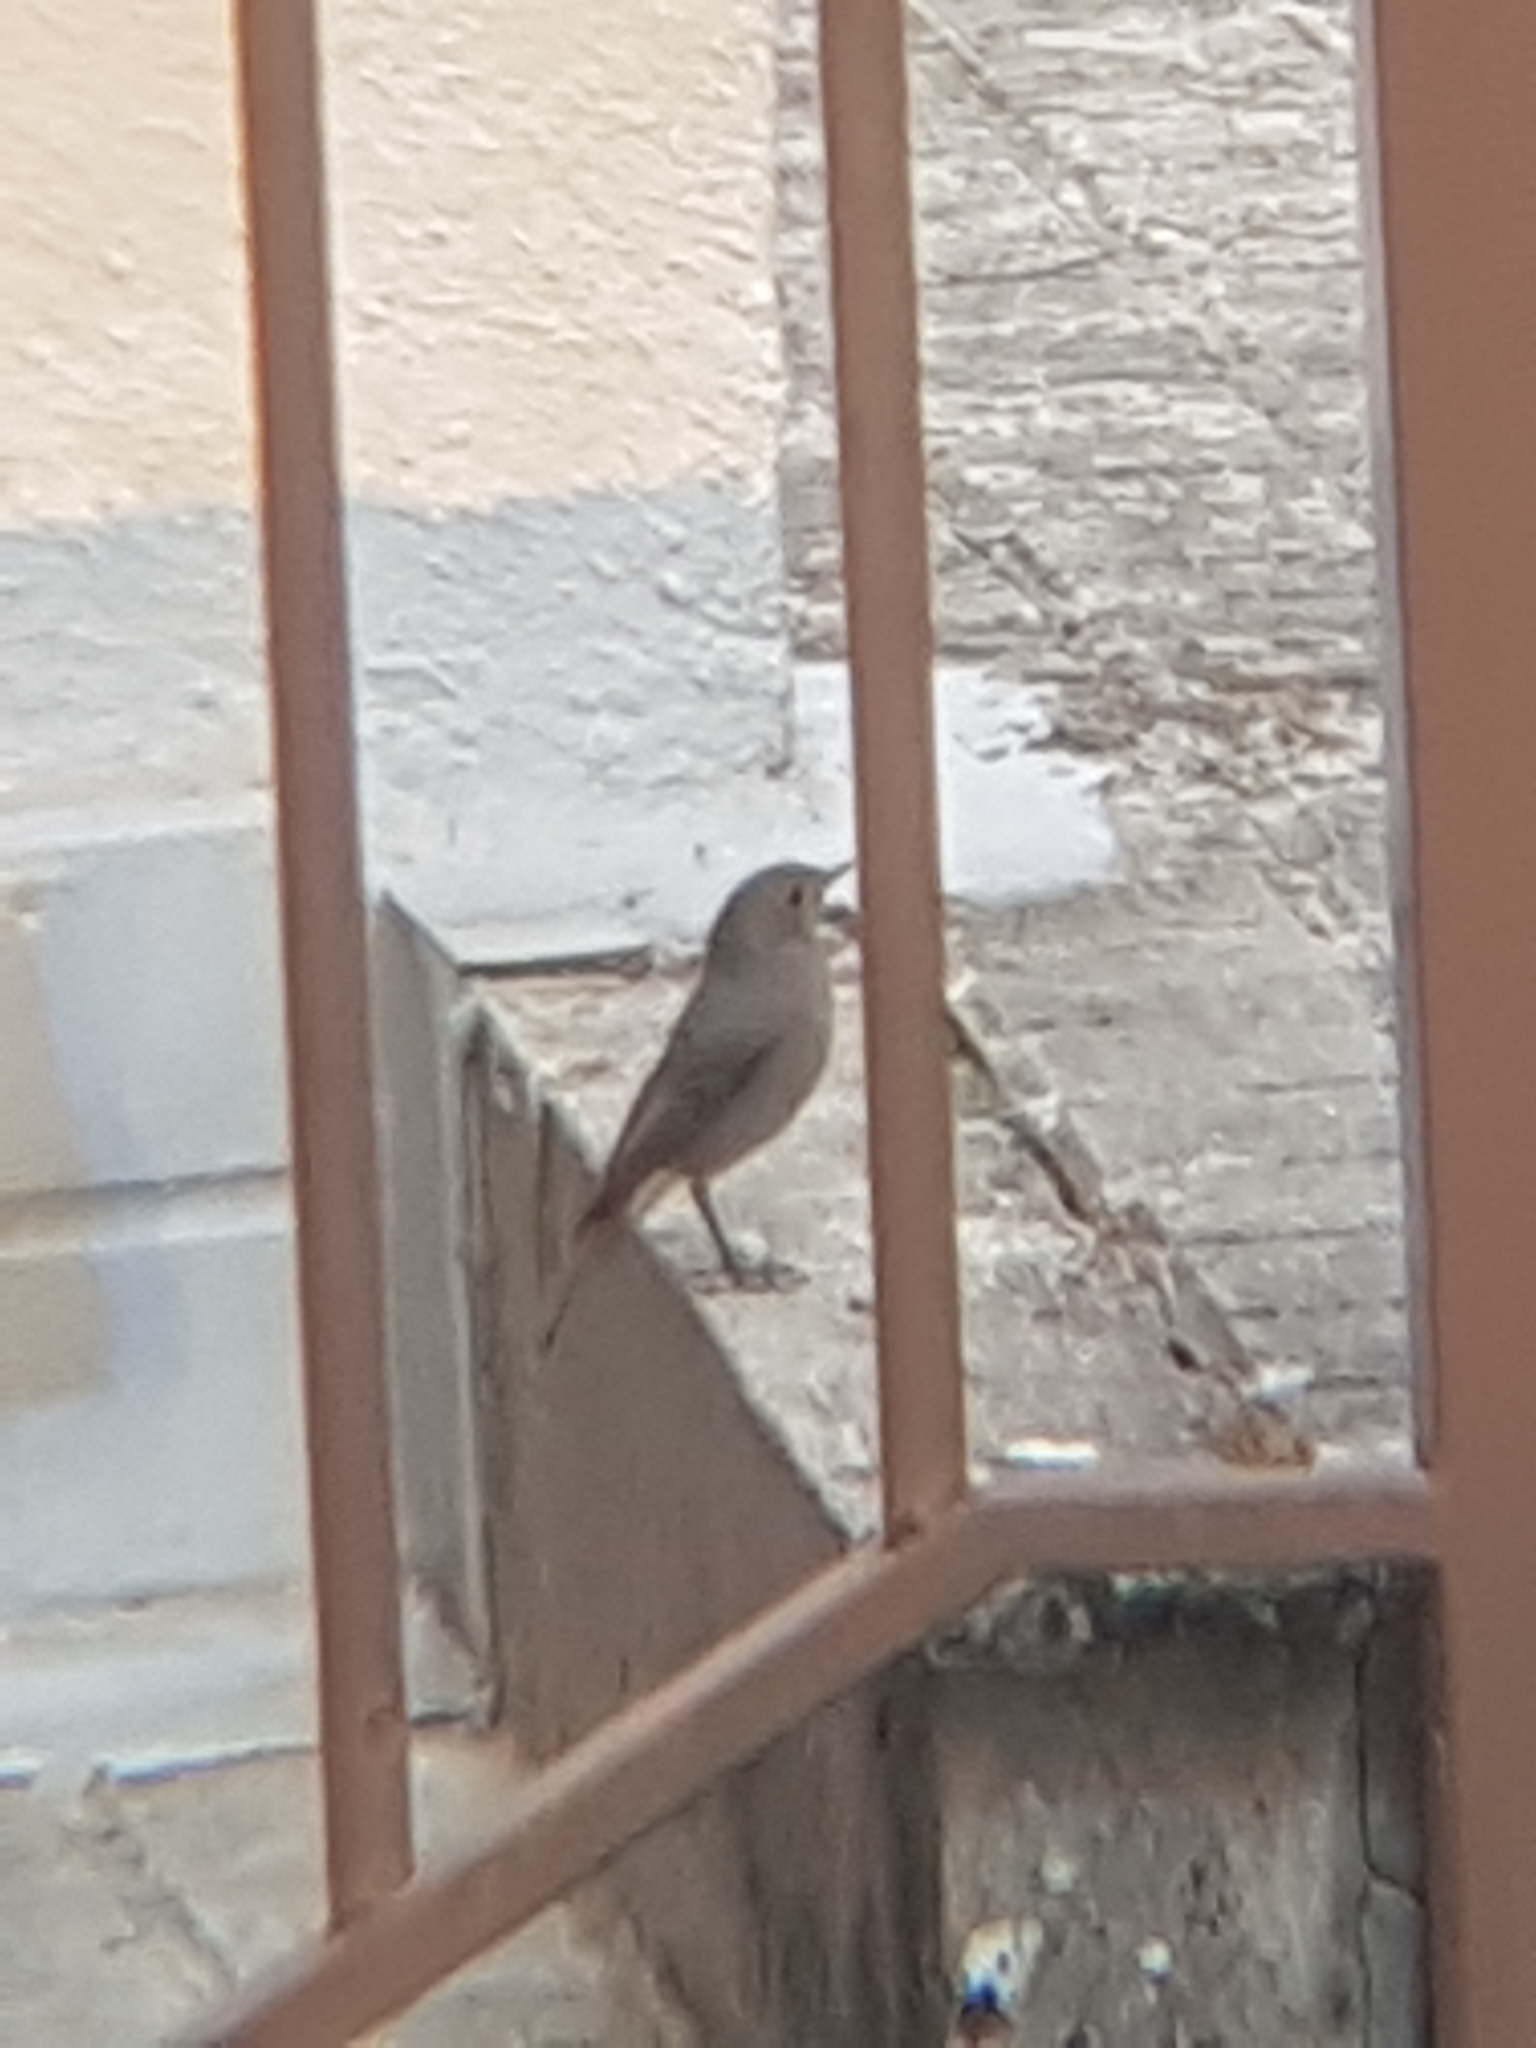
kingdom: Animalia
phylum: Chordata
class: Aves
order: Passeriformes
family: Muscicapidae
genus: Phoenicurus
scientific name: Phoenicurus ochruros
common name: Black redstart
